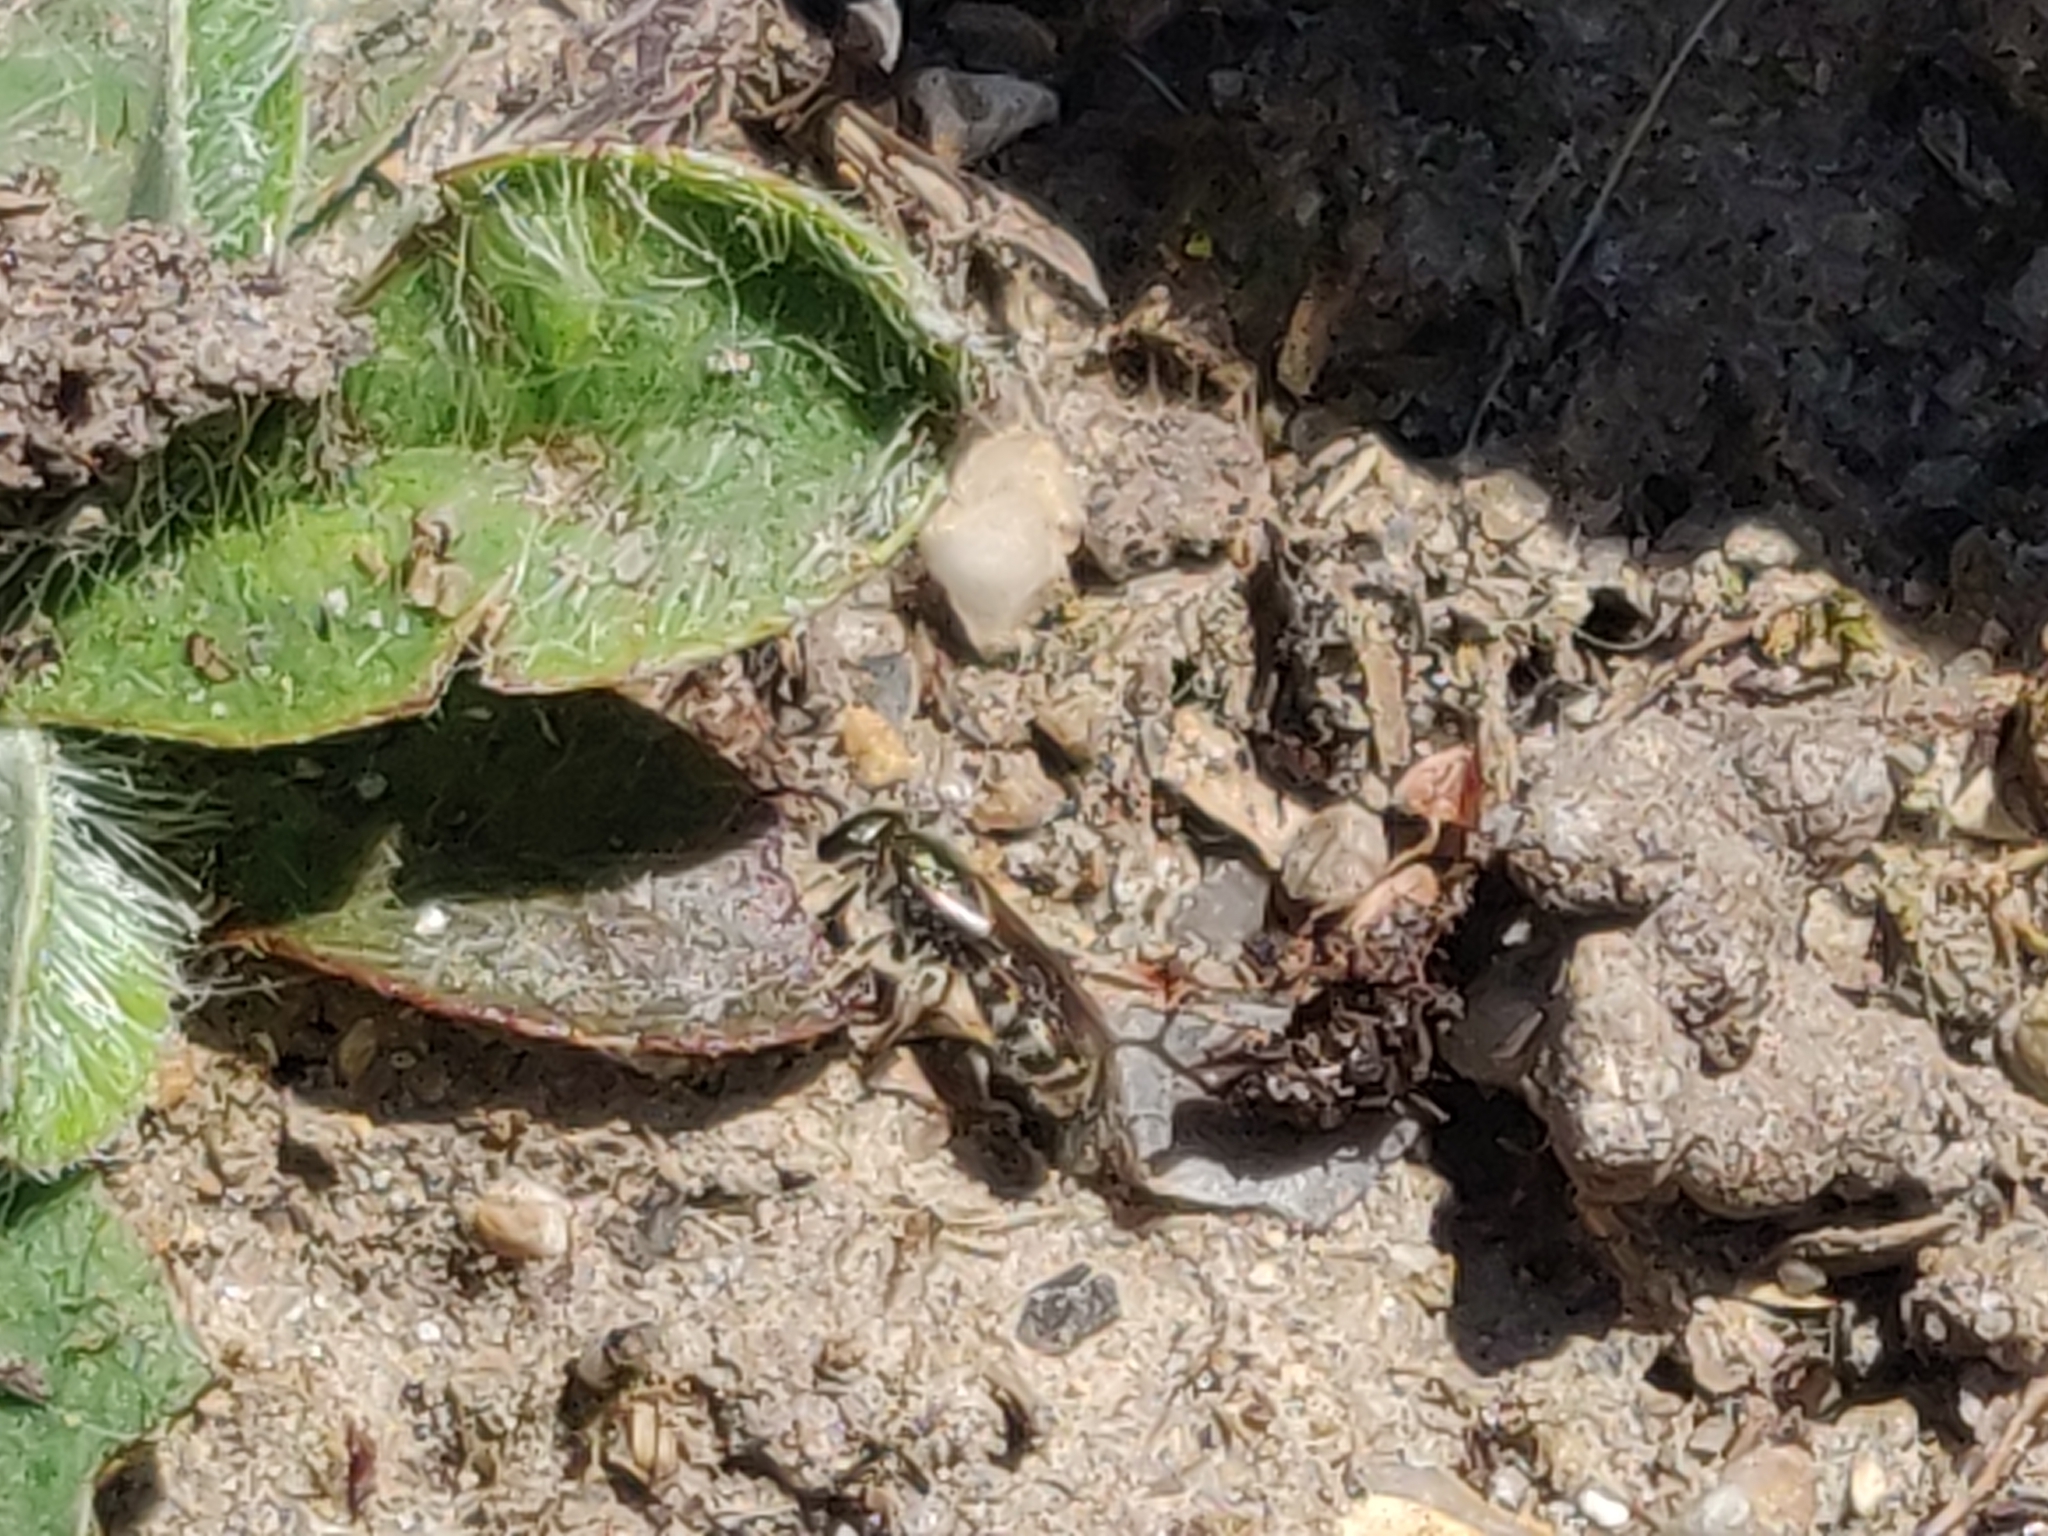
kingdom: Animalia
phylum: Arthropoda
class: Insecta
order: Hymenoptera
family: Halictidae
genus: Halictus
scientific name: Halictus tumulorum
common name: Bronze furrow bee
